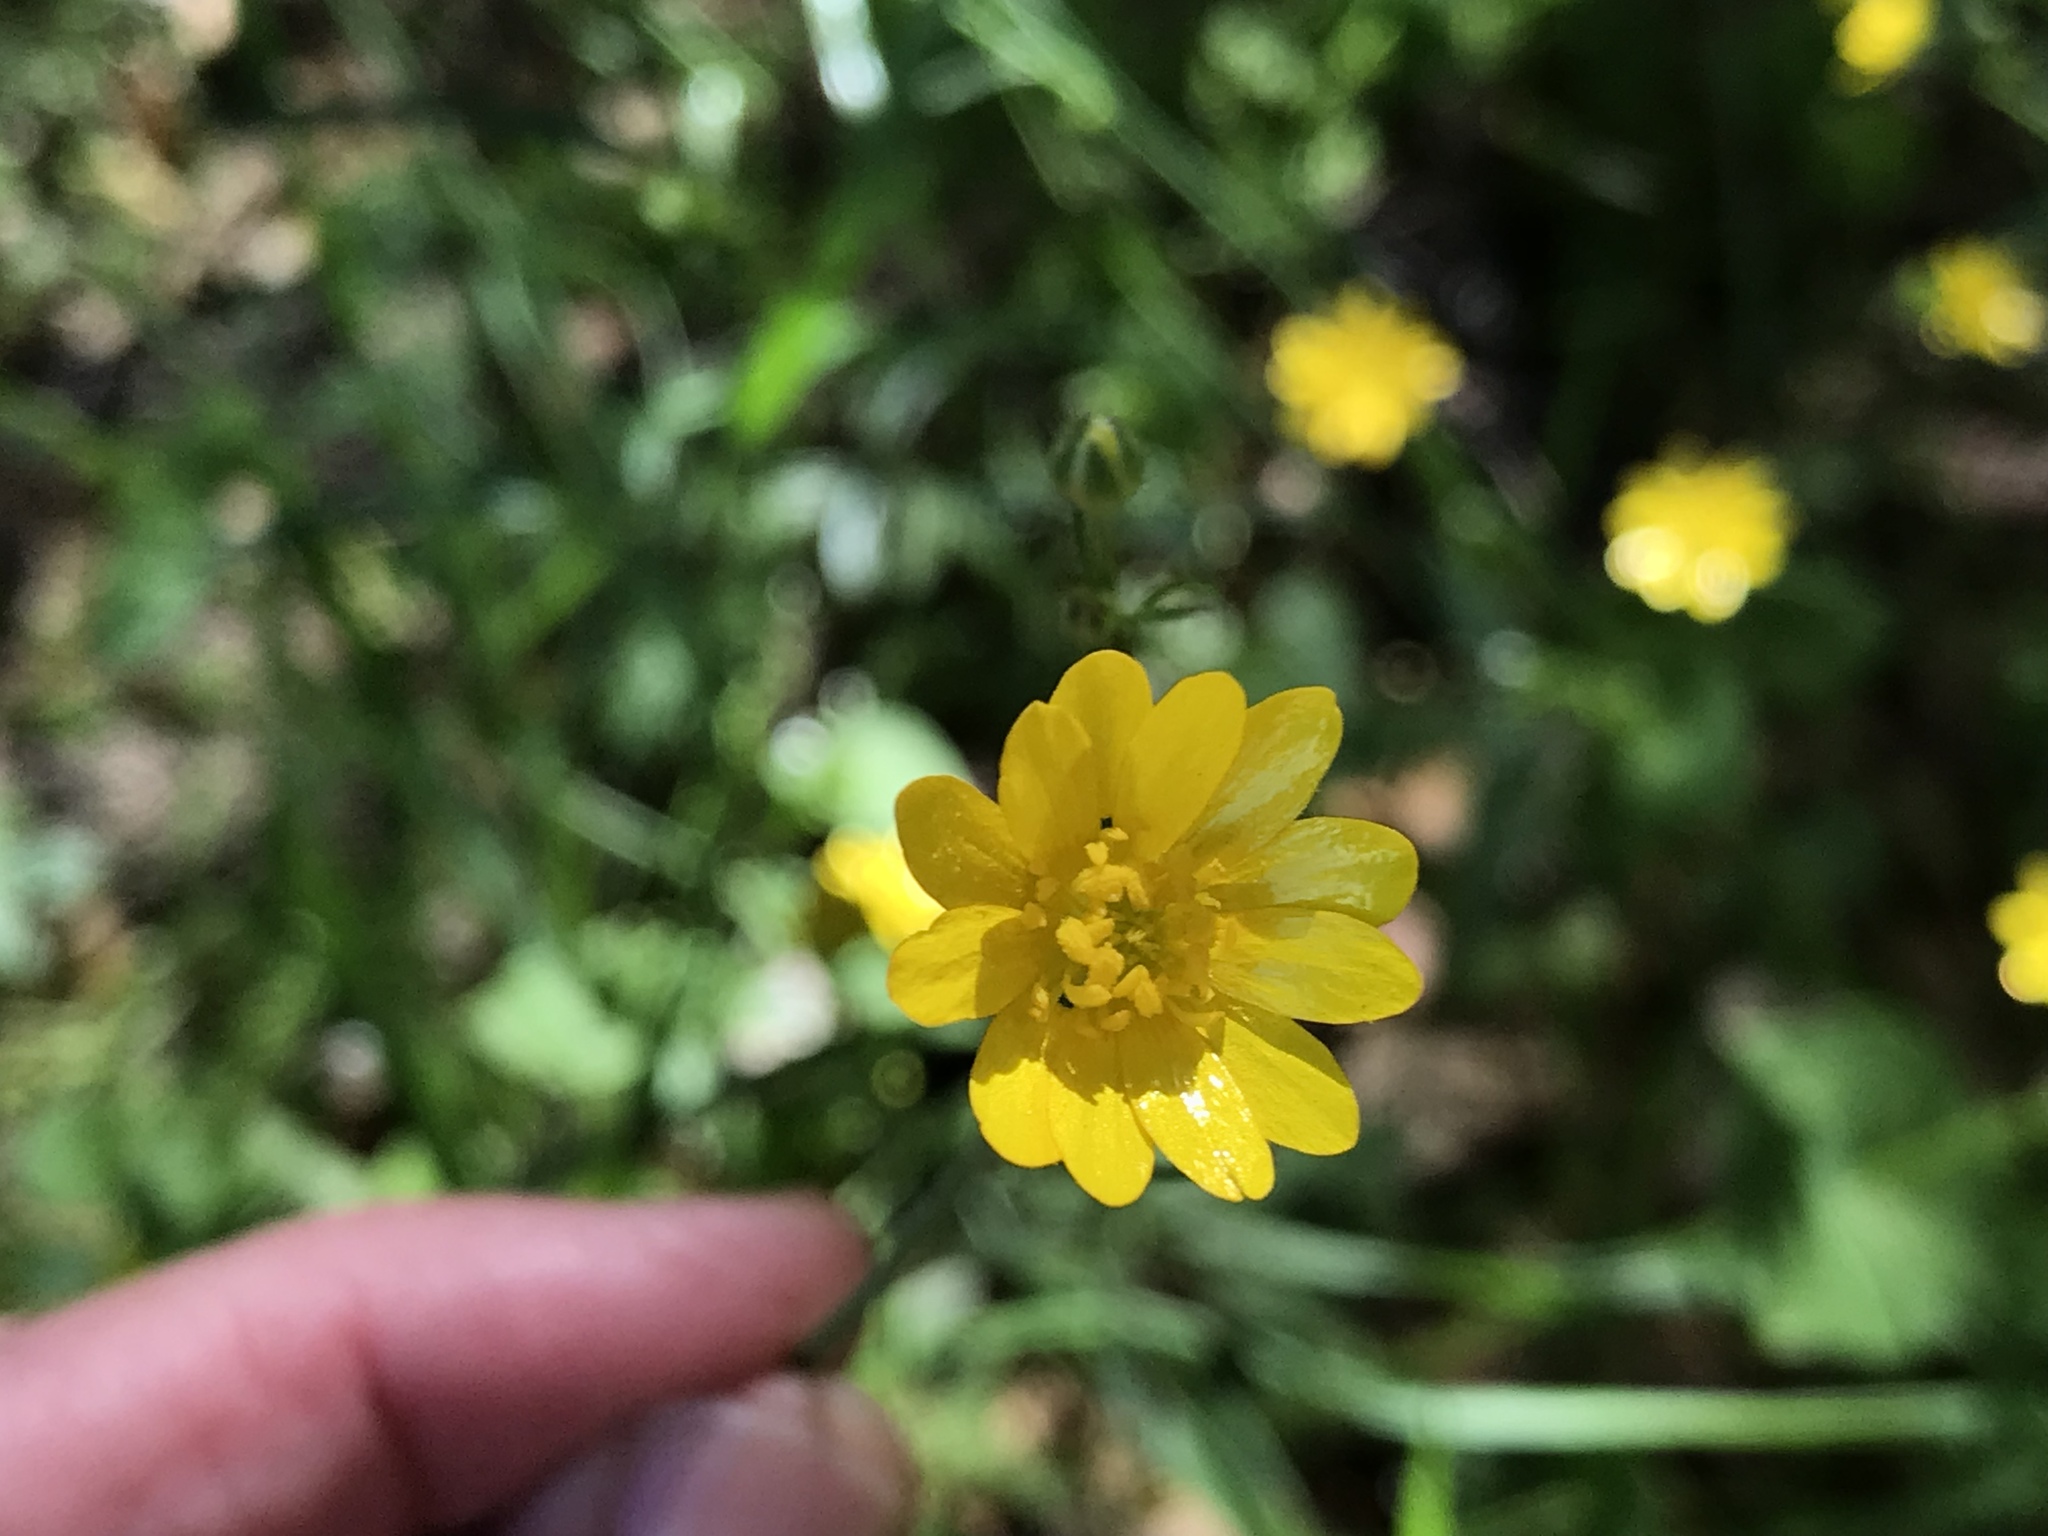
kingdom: Plantae
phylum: Tracheophyta
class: Magnoliopsida
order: Ranunculales
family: Ranunculaceae
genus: Ranunculus
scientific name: Ranunculus californicus
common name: California buttercup
